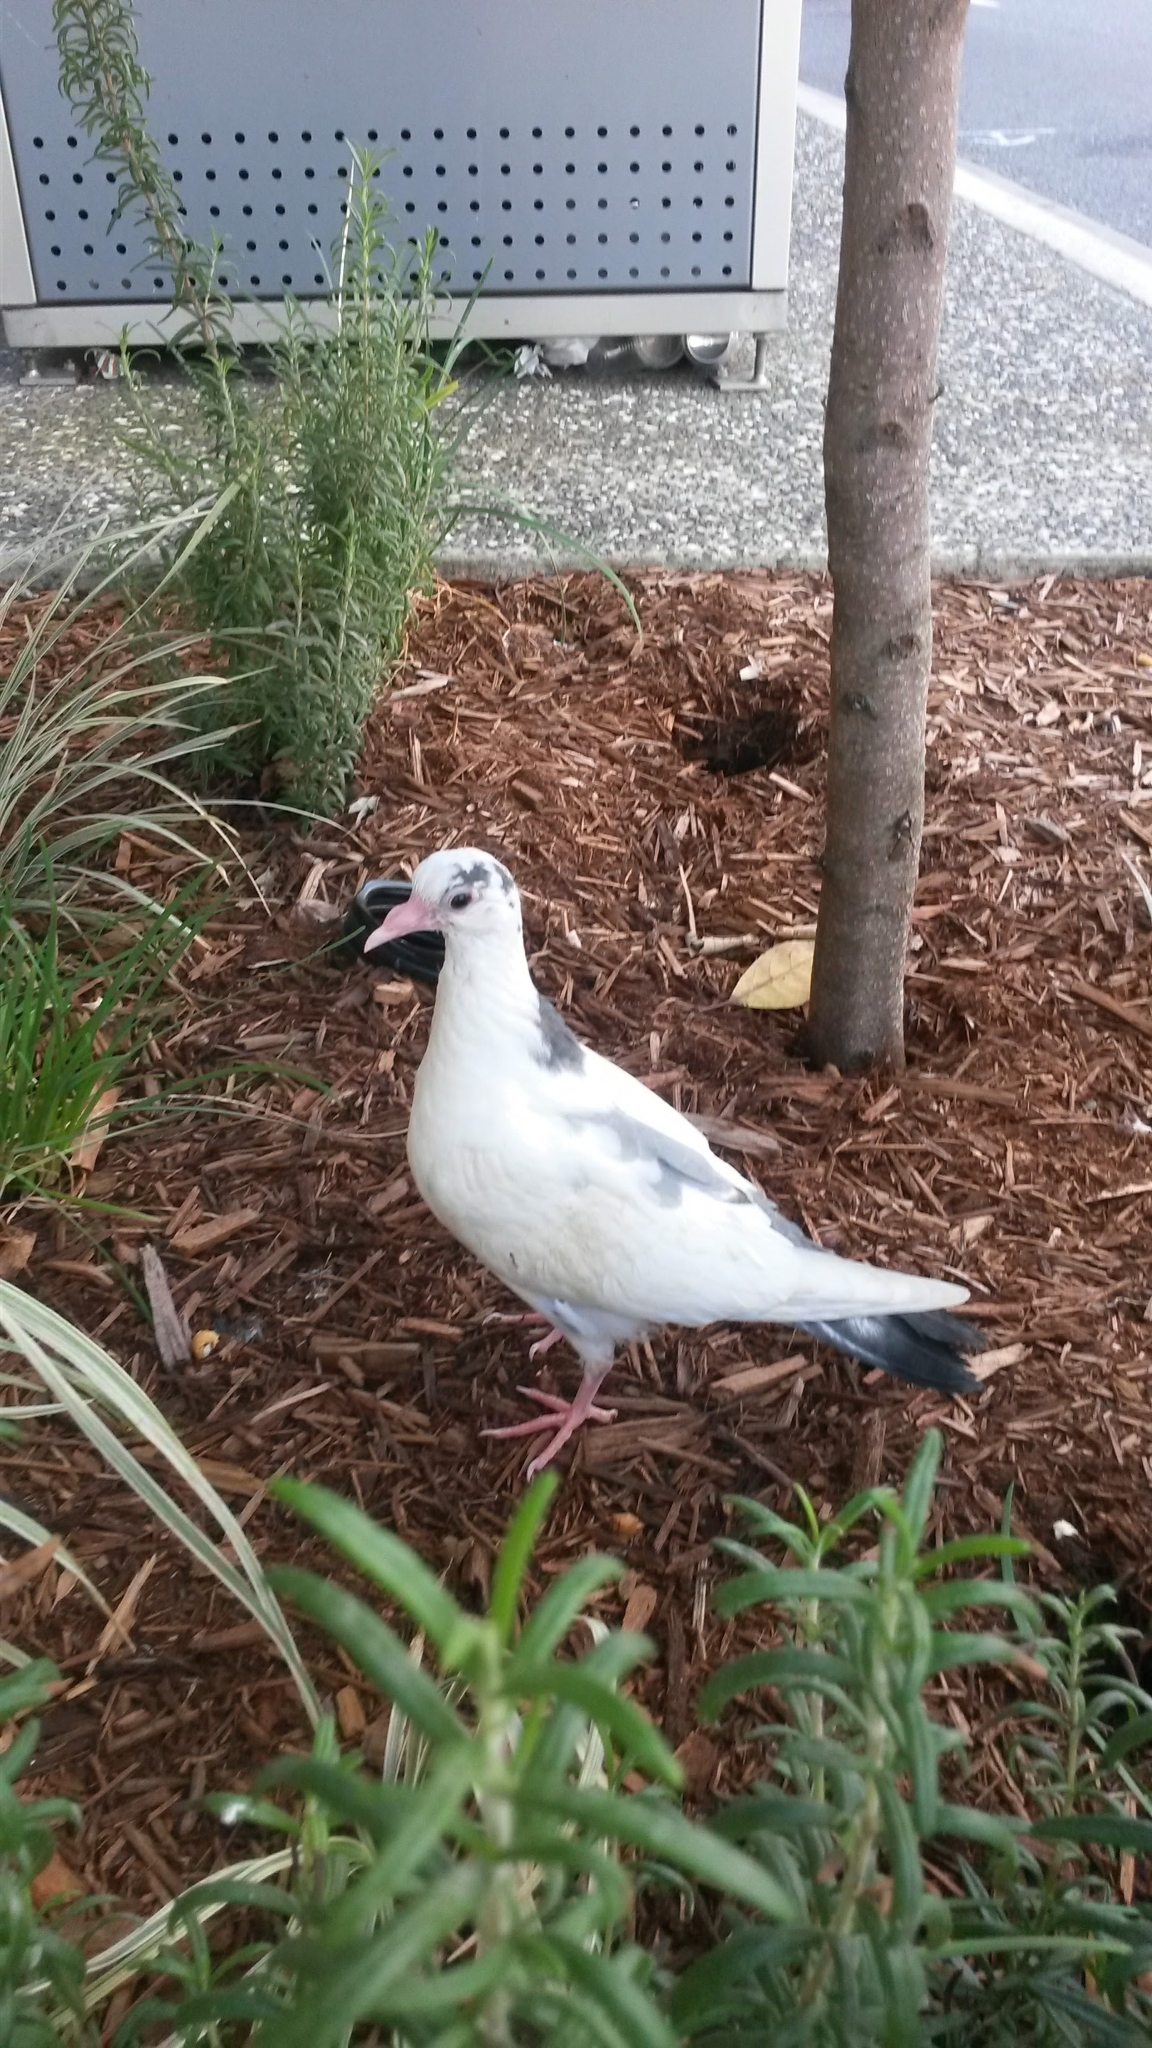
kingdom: Animalia
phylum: Chordata
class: Aves
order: Columbiformes
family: Columbidae
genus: Columba
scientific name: Columba livia
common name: Rock pigeon
